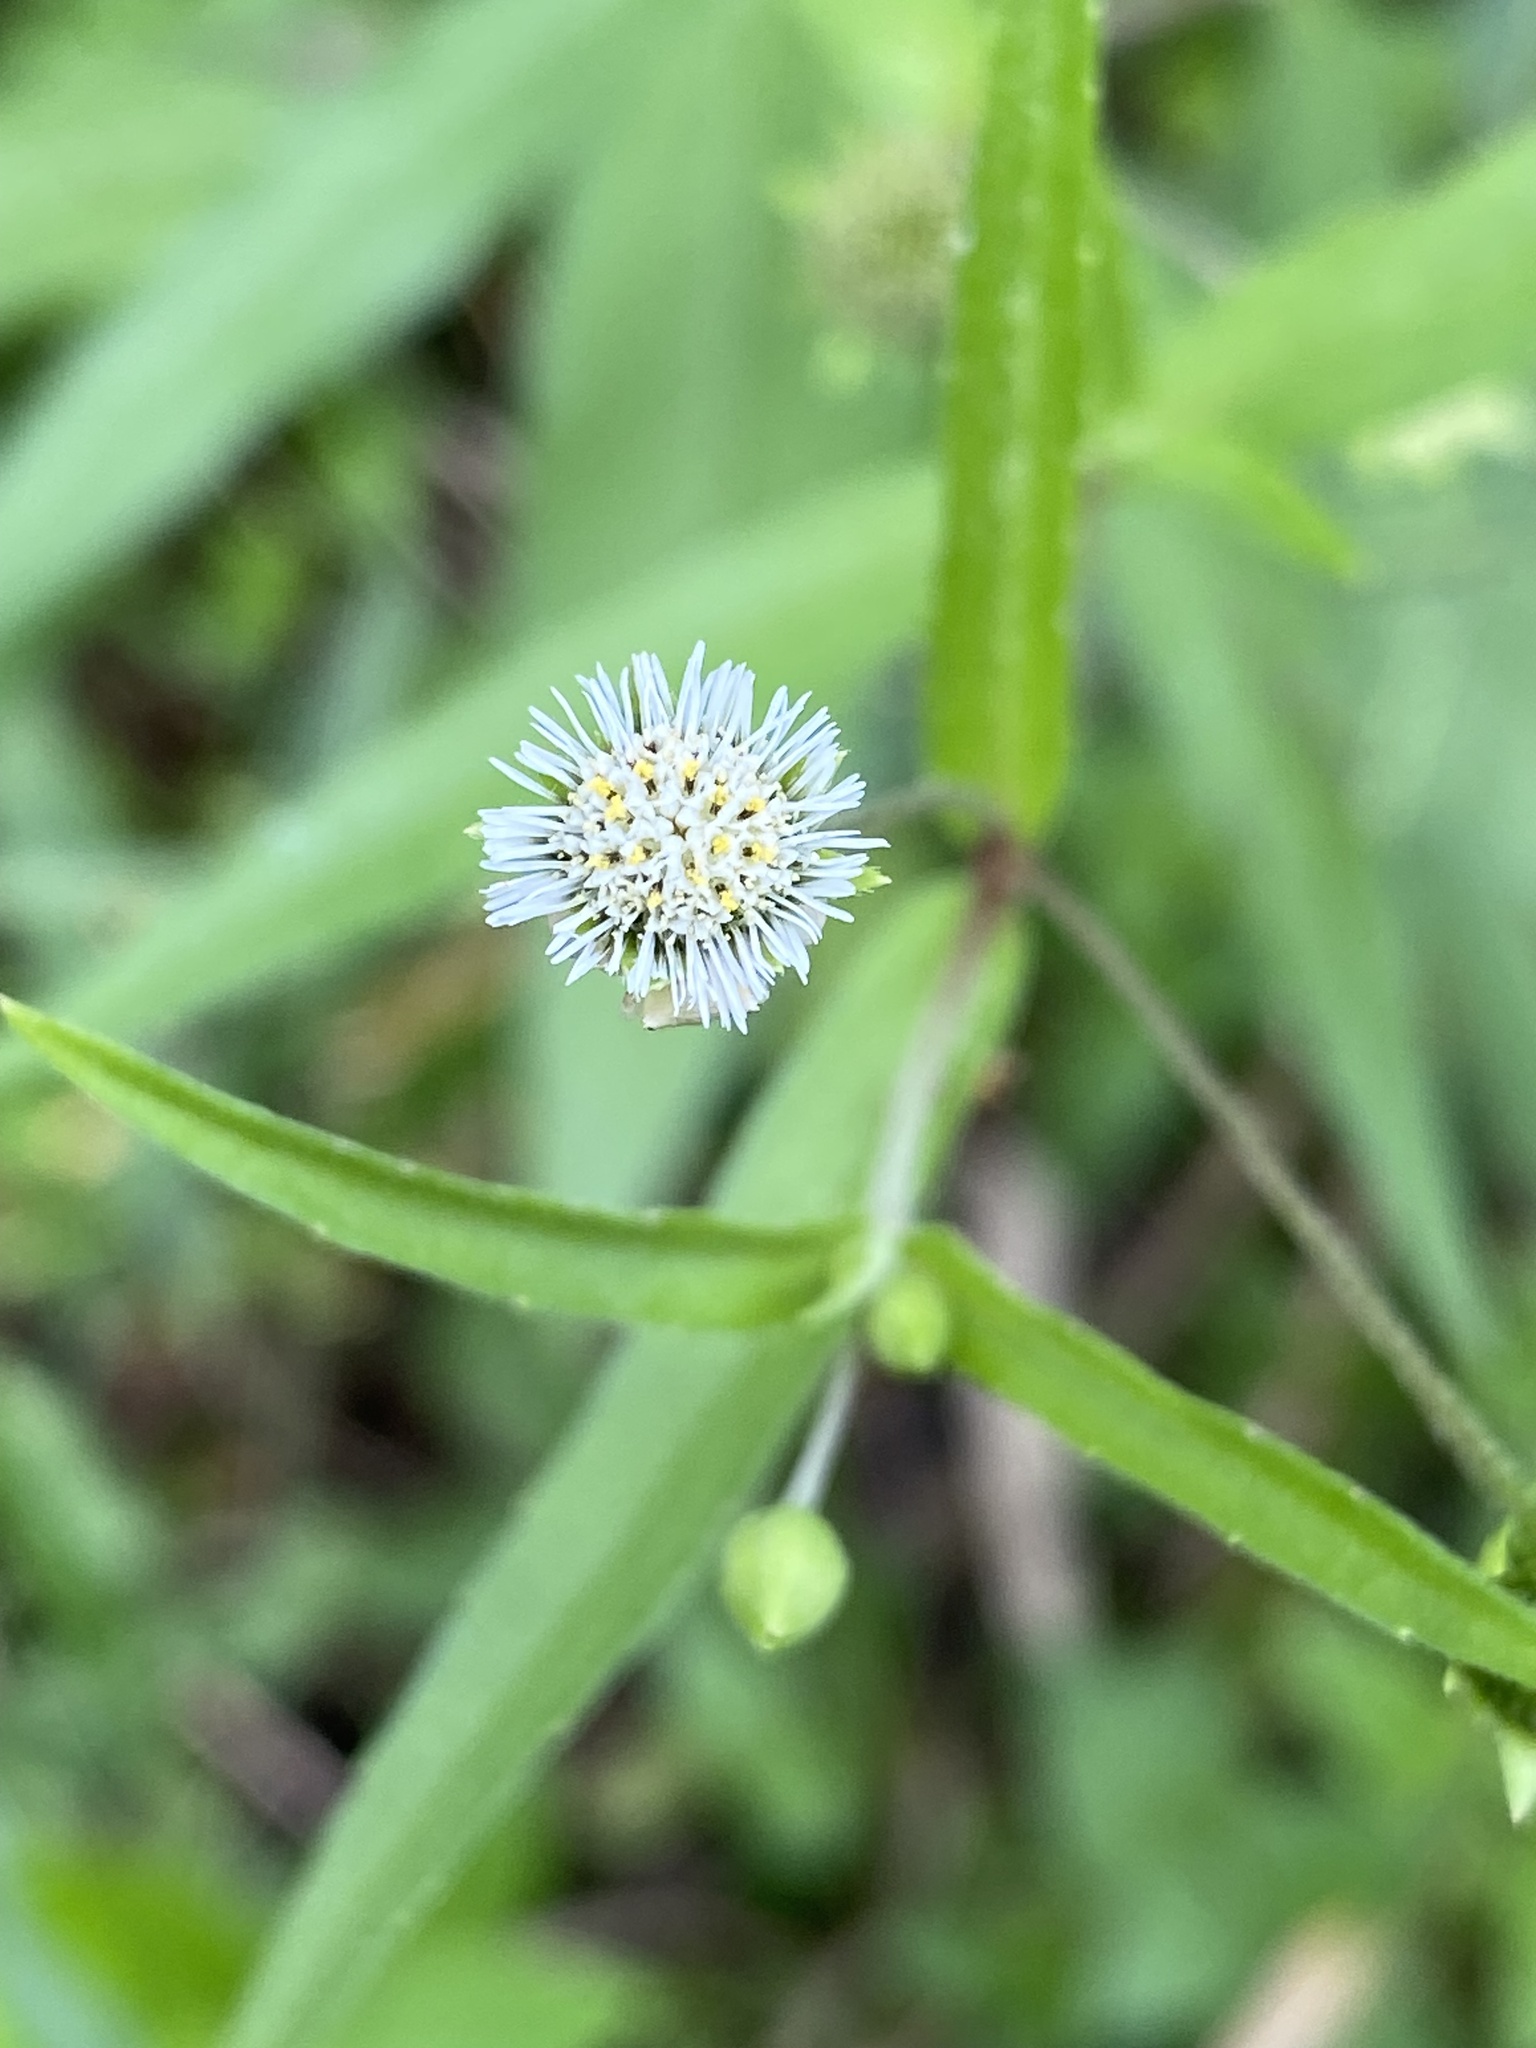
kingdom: Plantae
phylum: Tracheophyta
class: Magnoliopsida
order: Asterales
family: Asteraceae
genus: Eclipta
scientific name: Eclipta prostrata
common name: False daisy
